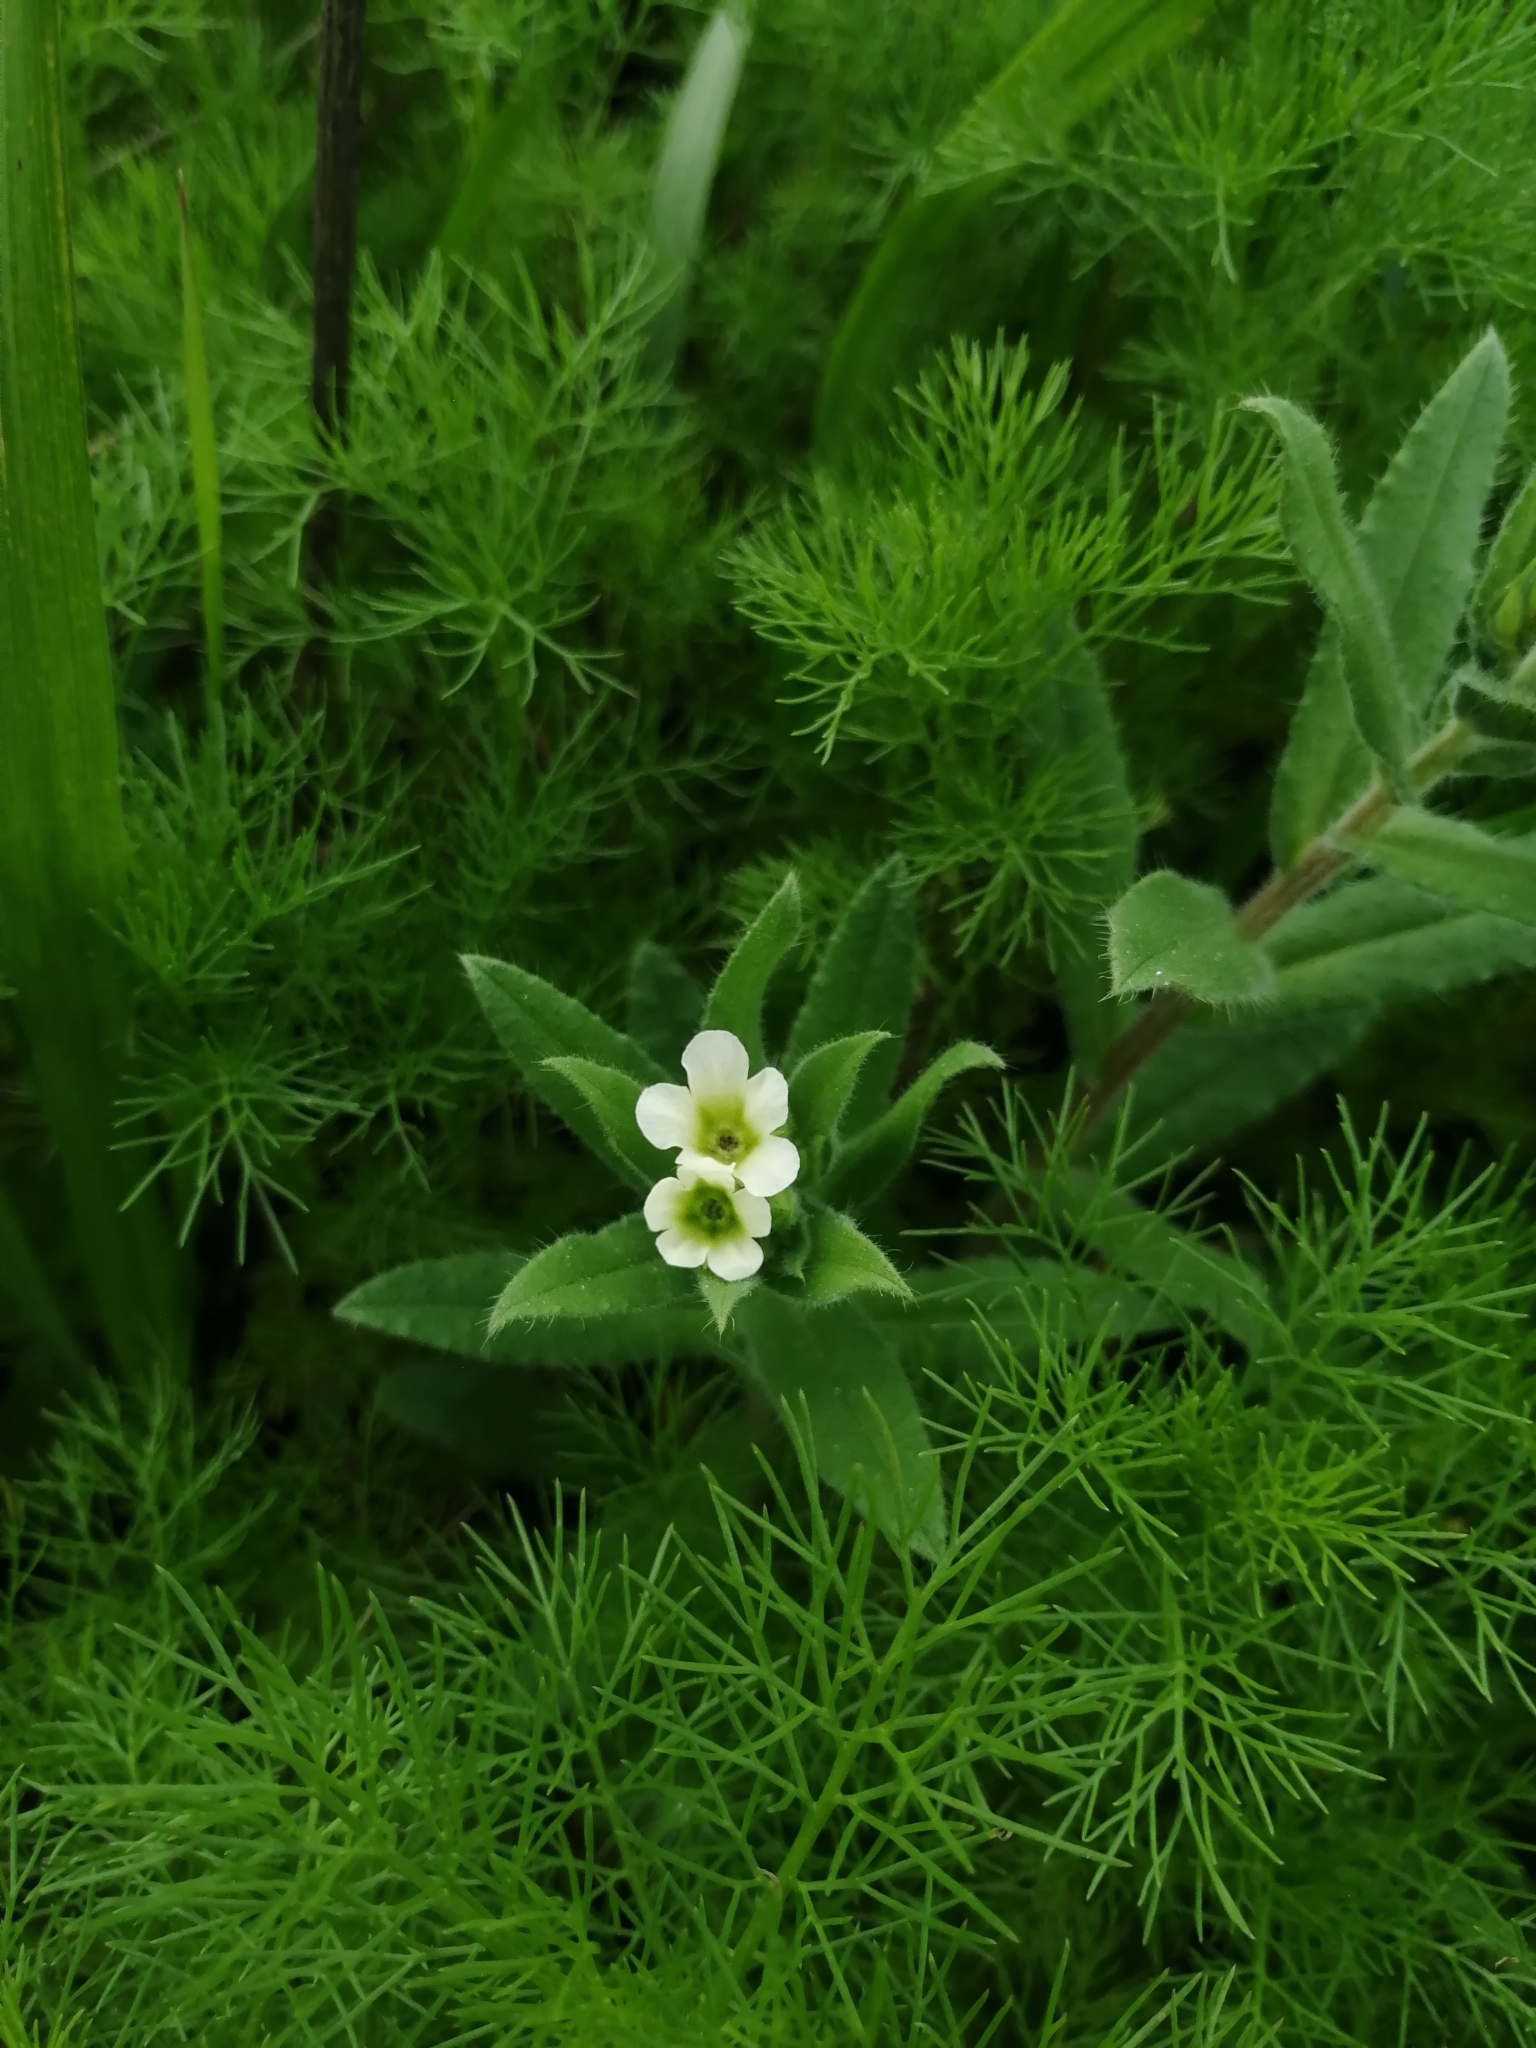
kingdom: Plantae
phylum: Tracheophyta
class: Magnoliopsida
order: Boraginales
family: Boraginaceae
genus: Nonea
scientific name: Nonea lutea
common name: Yellow nonea
